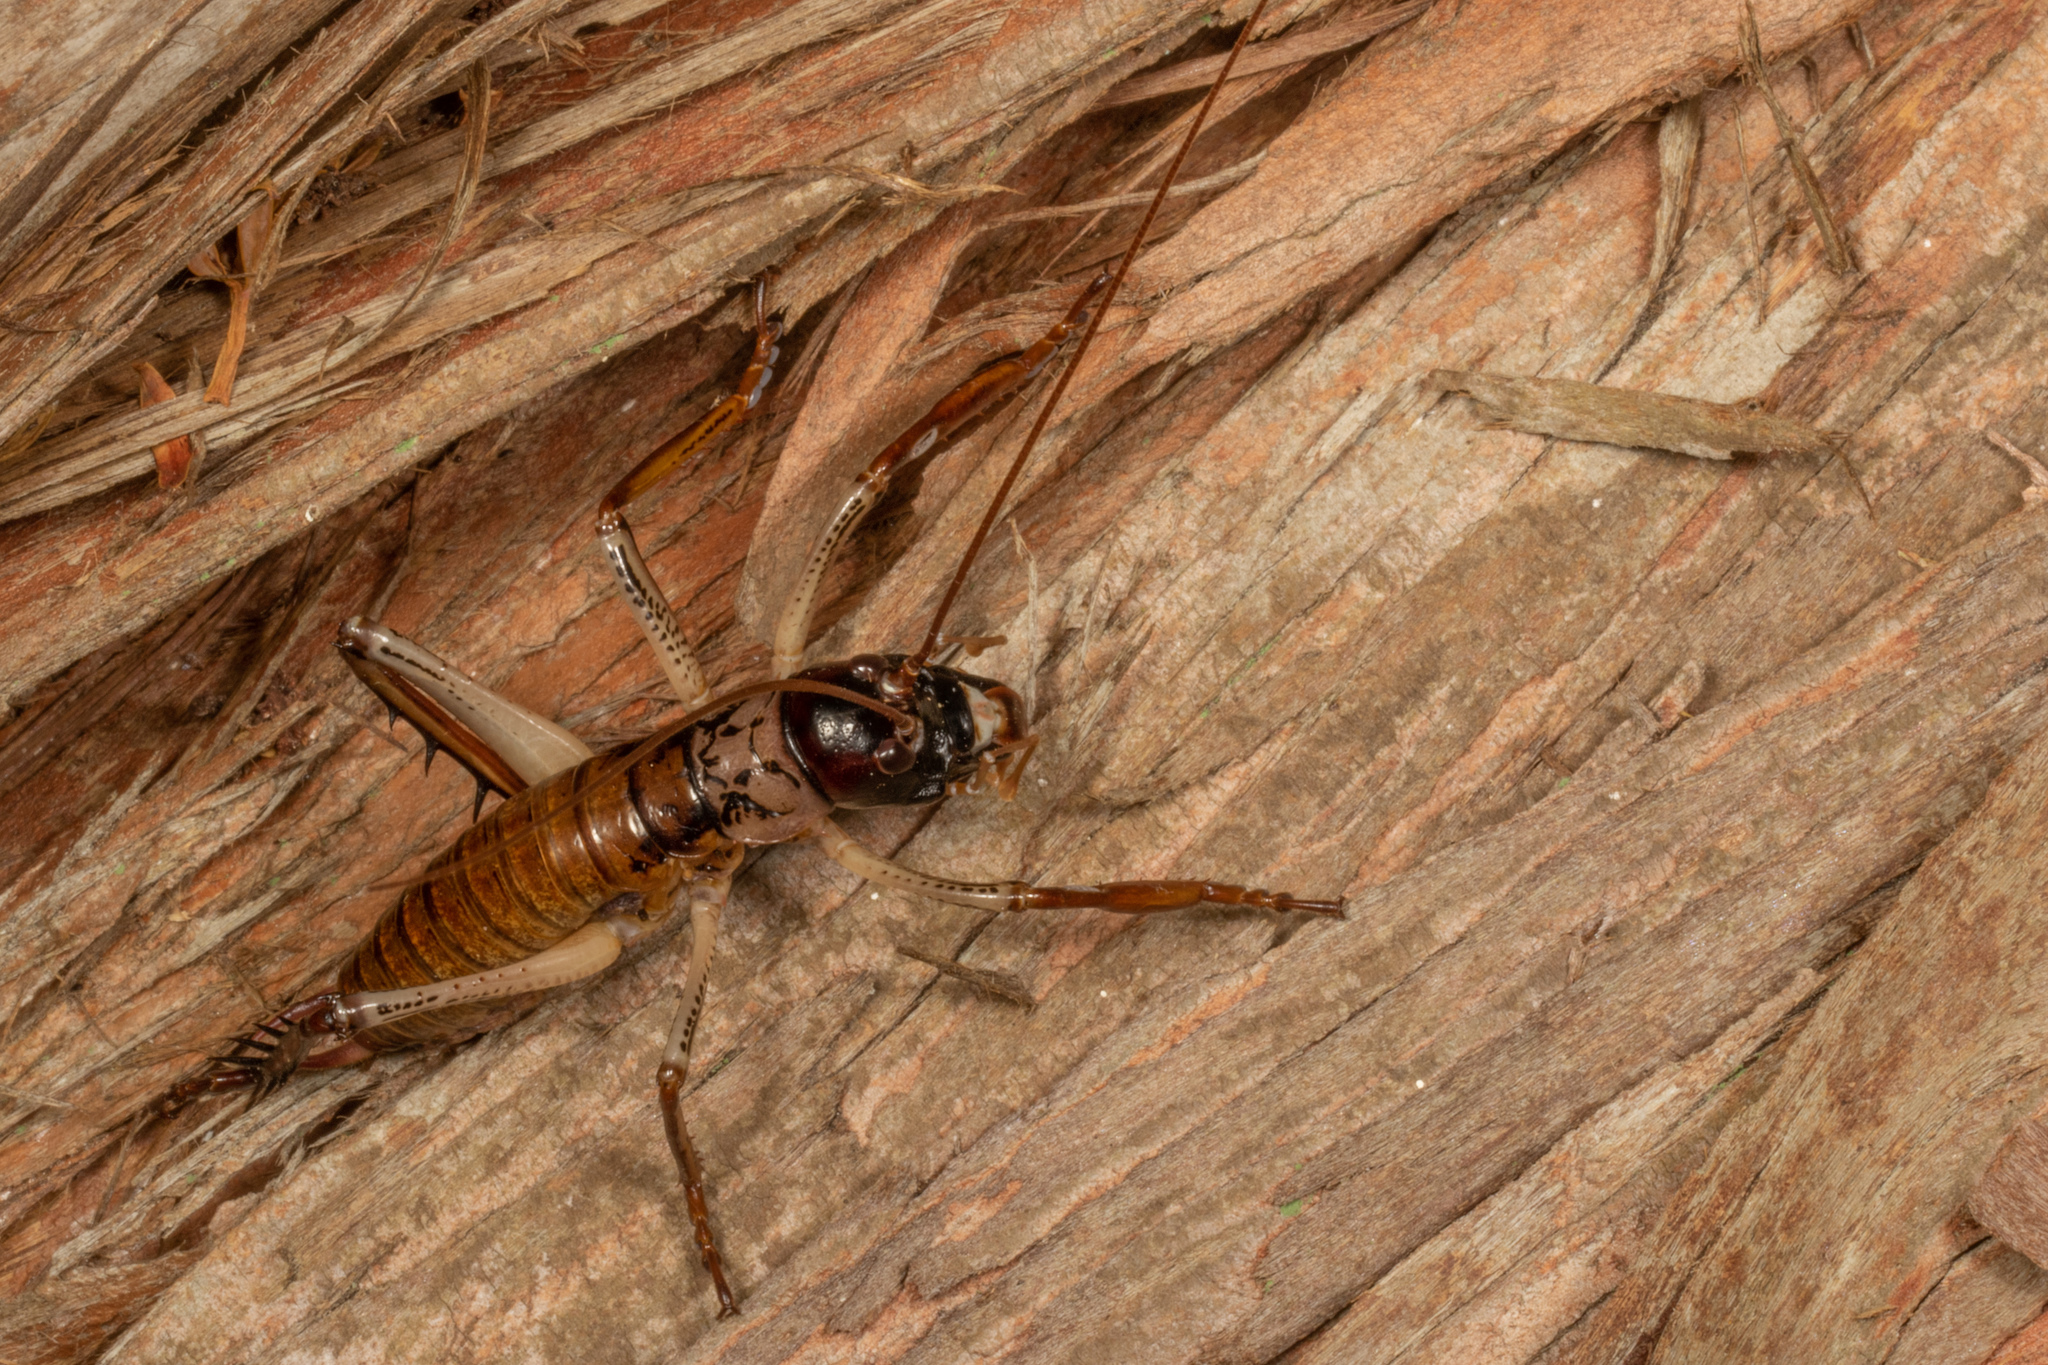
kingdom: Animalia
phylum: Arthropoda
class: Insecta
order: Orthoptera
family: Anostostomatidae
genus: Hemideina
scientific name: Hemideina thoracica
